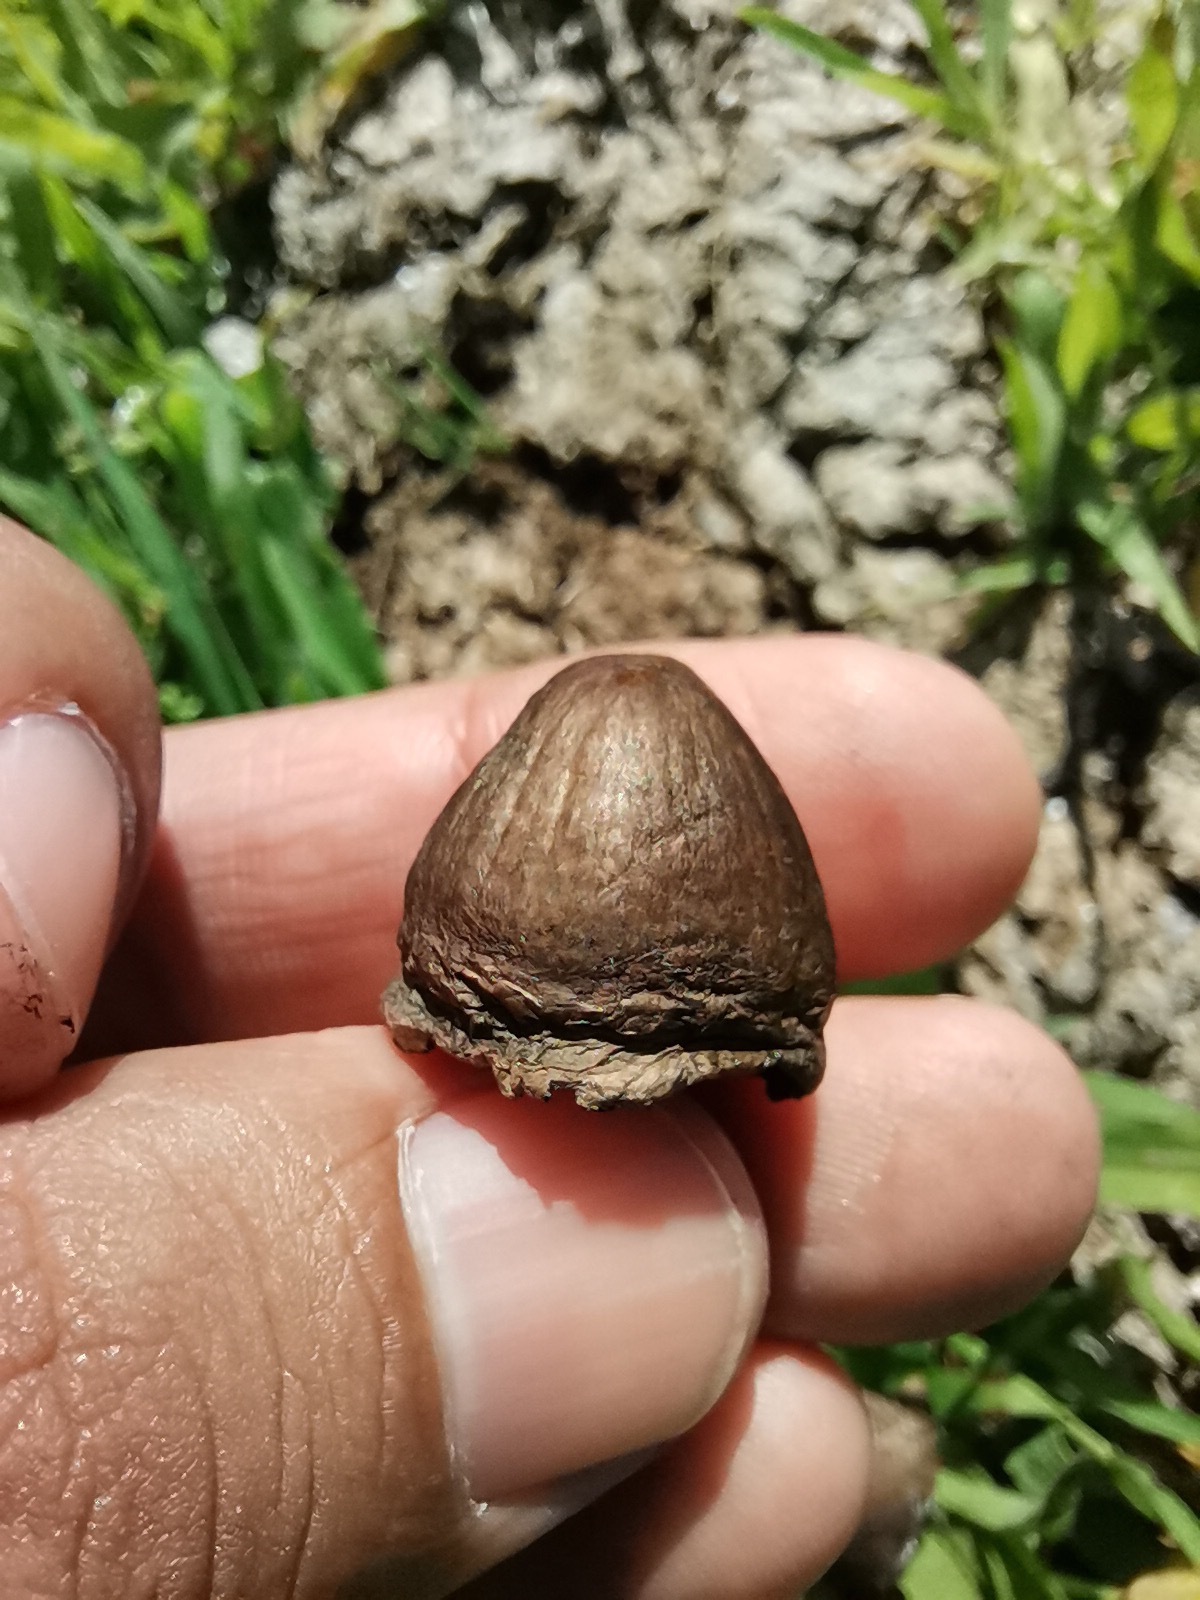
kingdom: Fungi
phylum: Basidiomycota
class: Agaricomycetes
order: Agaricales
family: Bolbitiaceae
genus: Panaeolus
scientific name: Panaeolus papilionaceus
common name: Petticoat mottlegill
